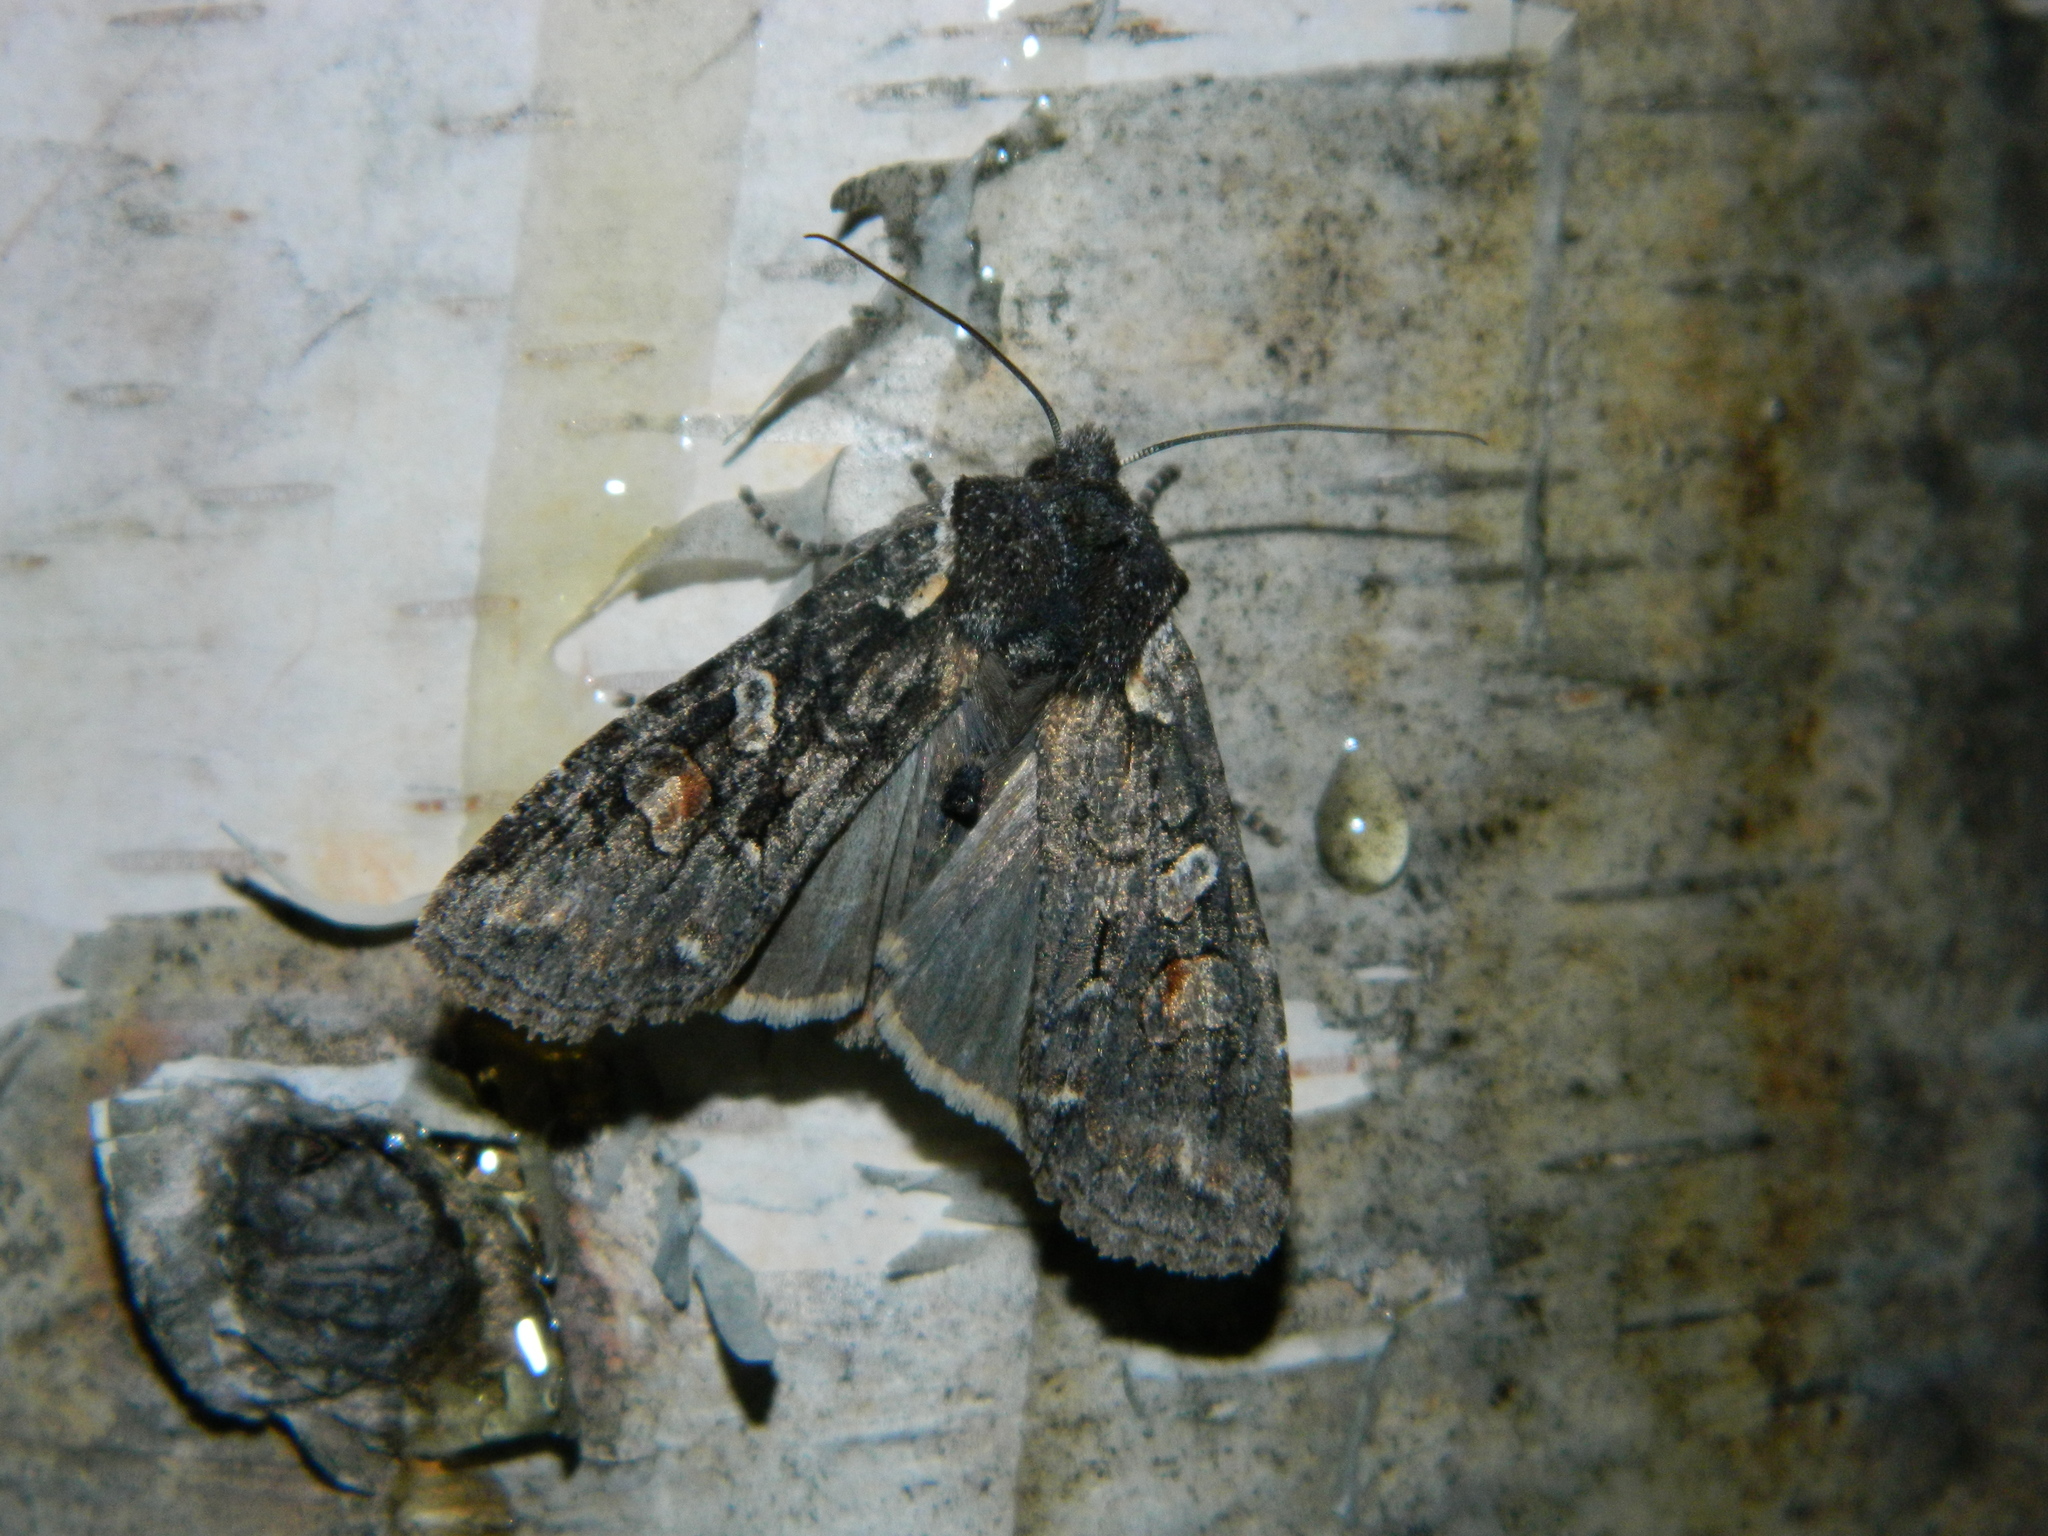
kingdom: Animalia
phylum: Arthropoda
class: Insecta
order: Lepidoptera
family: Noctuidae
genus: Lithophane
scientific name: Lithophane pexata
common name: Plush-naped pinion moth
